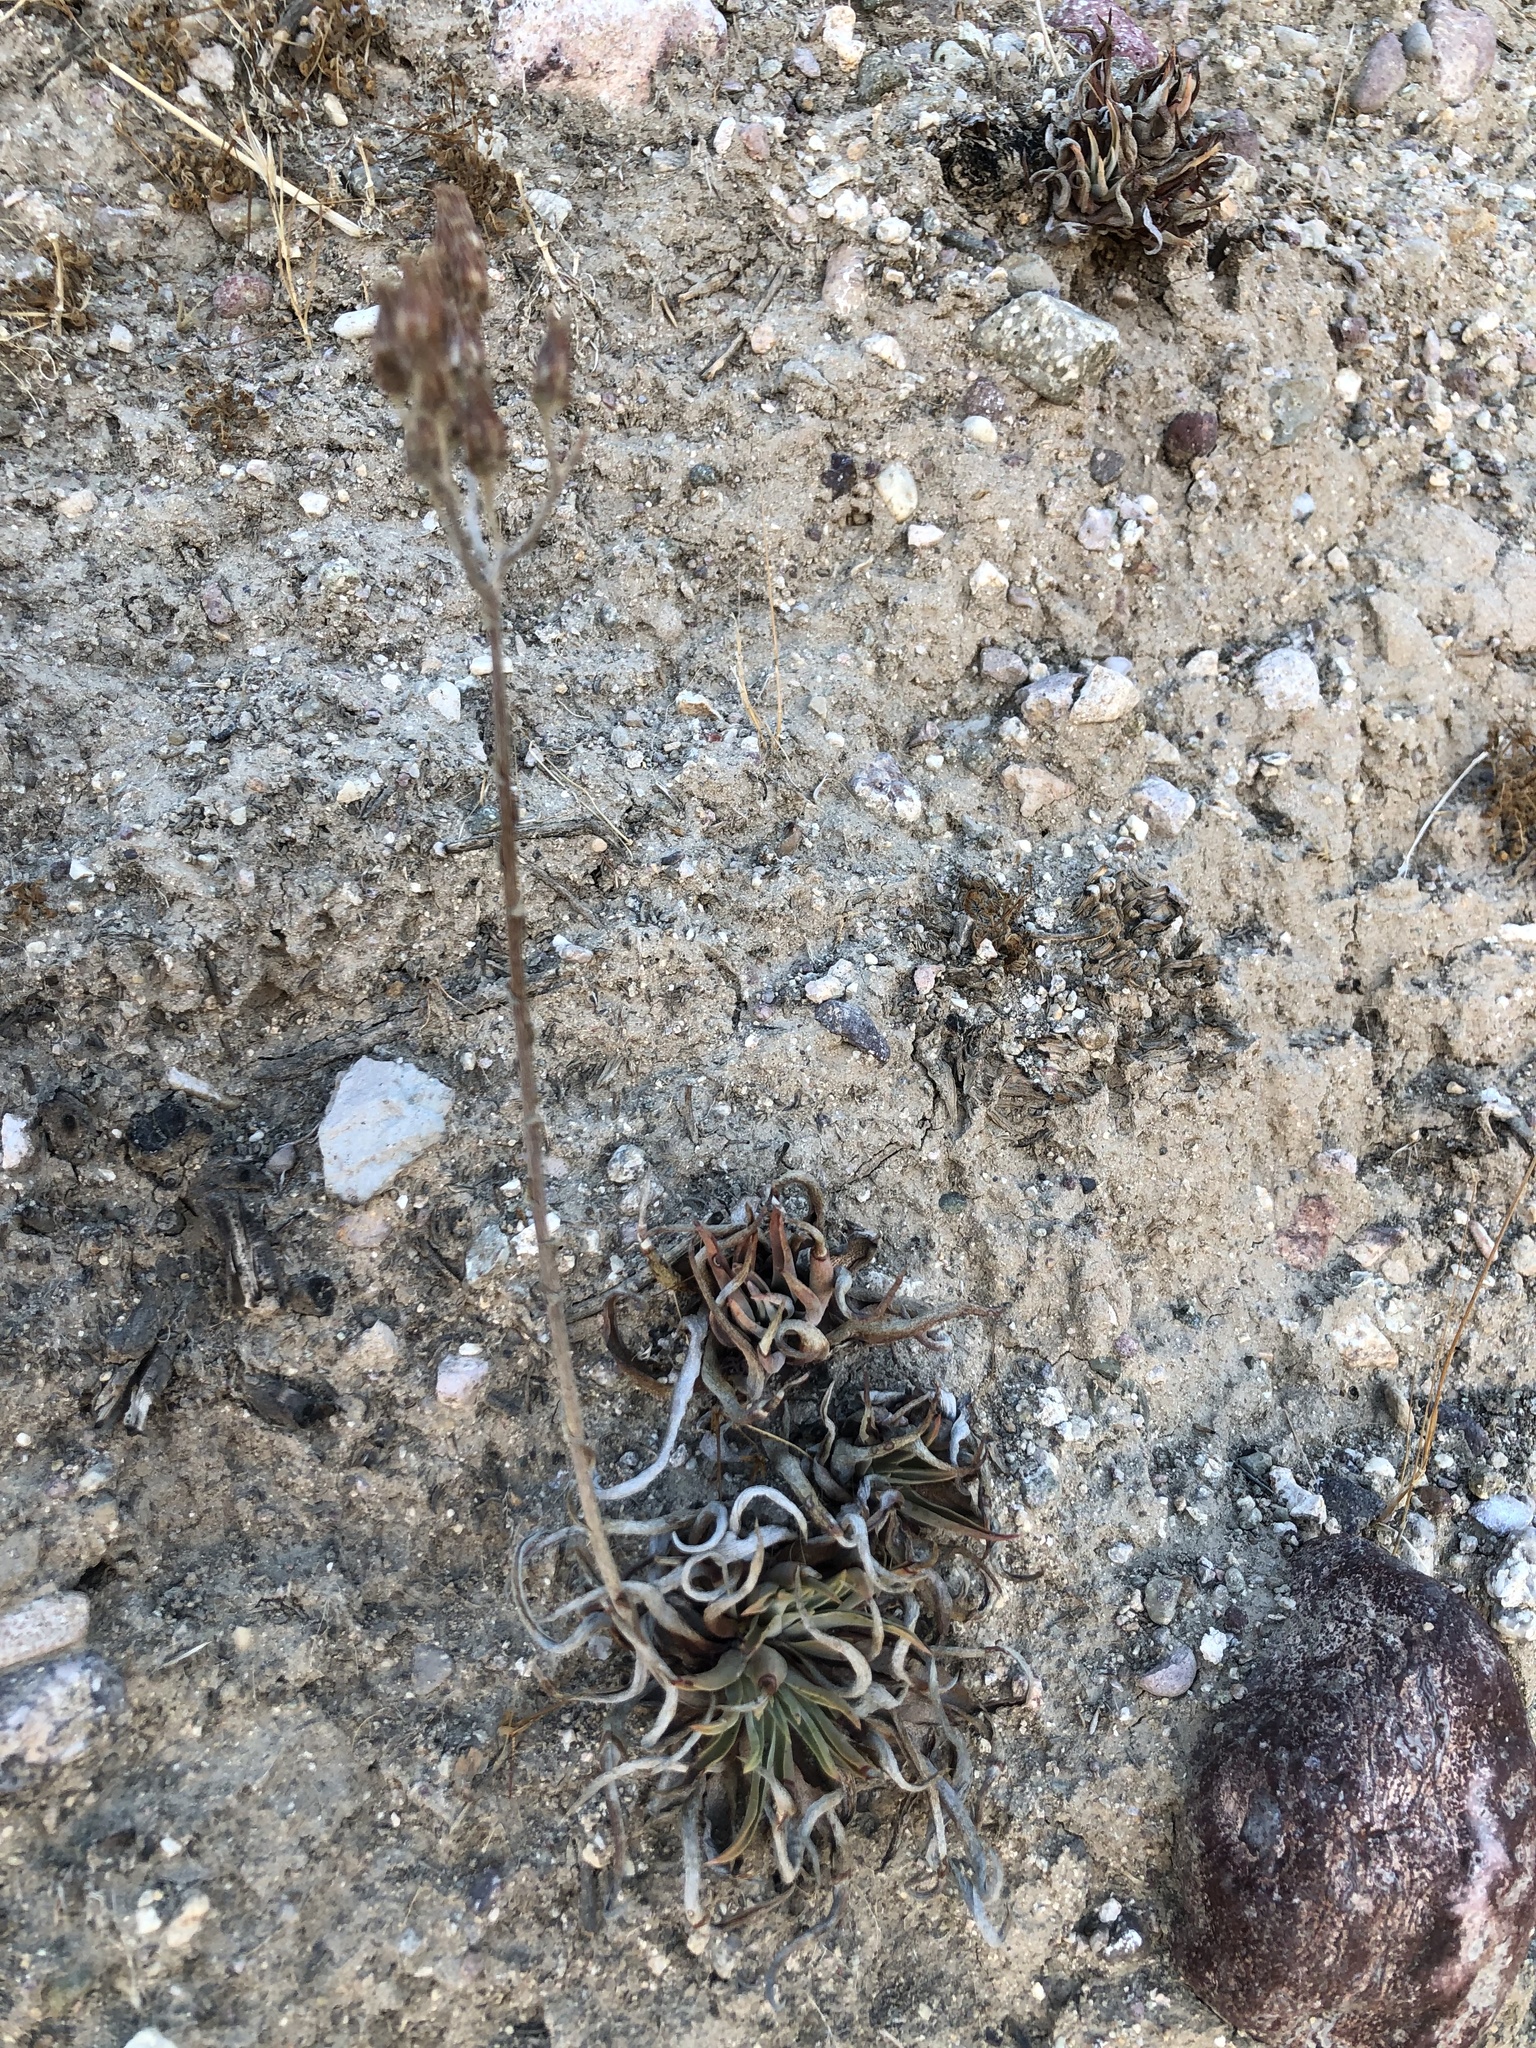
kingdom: Plantae
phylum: Tracheophyta
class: Magnoliopsida
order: Saxifragales
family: Crassulaceae
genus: Dudleya
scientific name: Dudleya lanceolata
